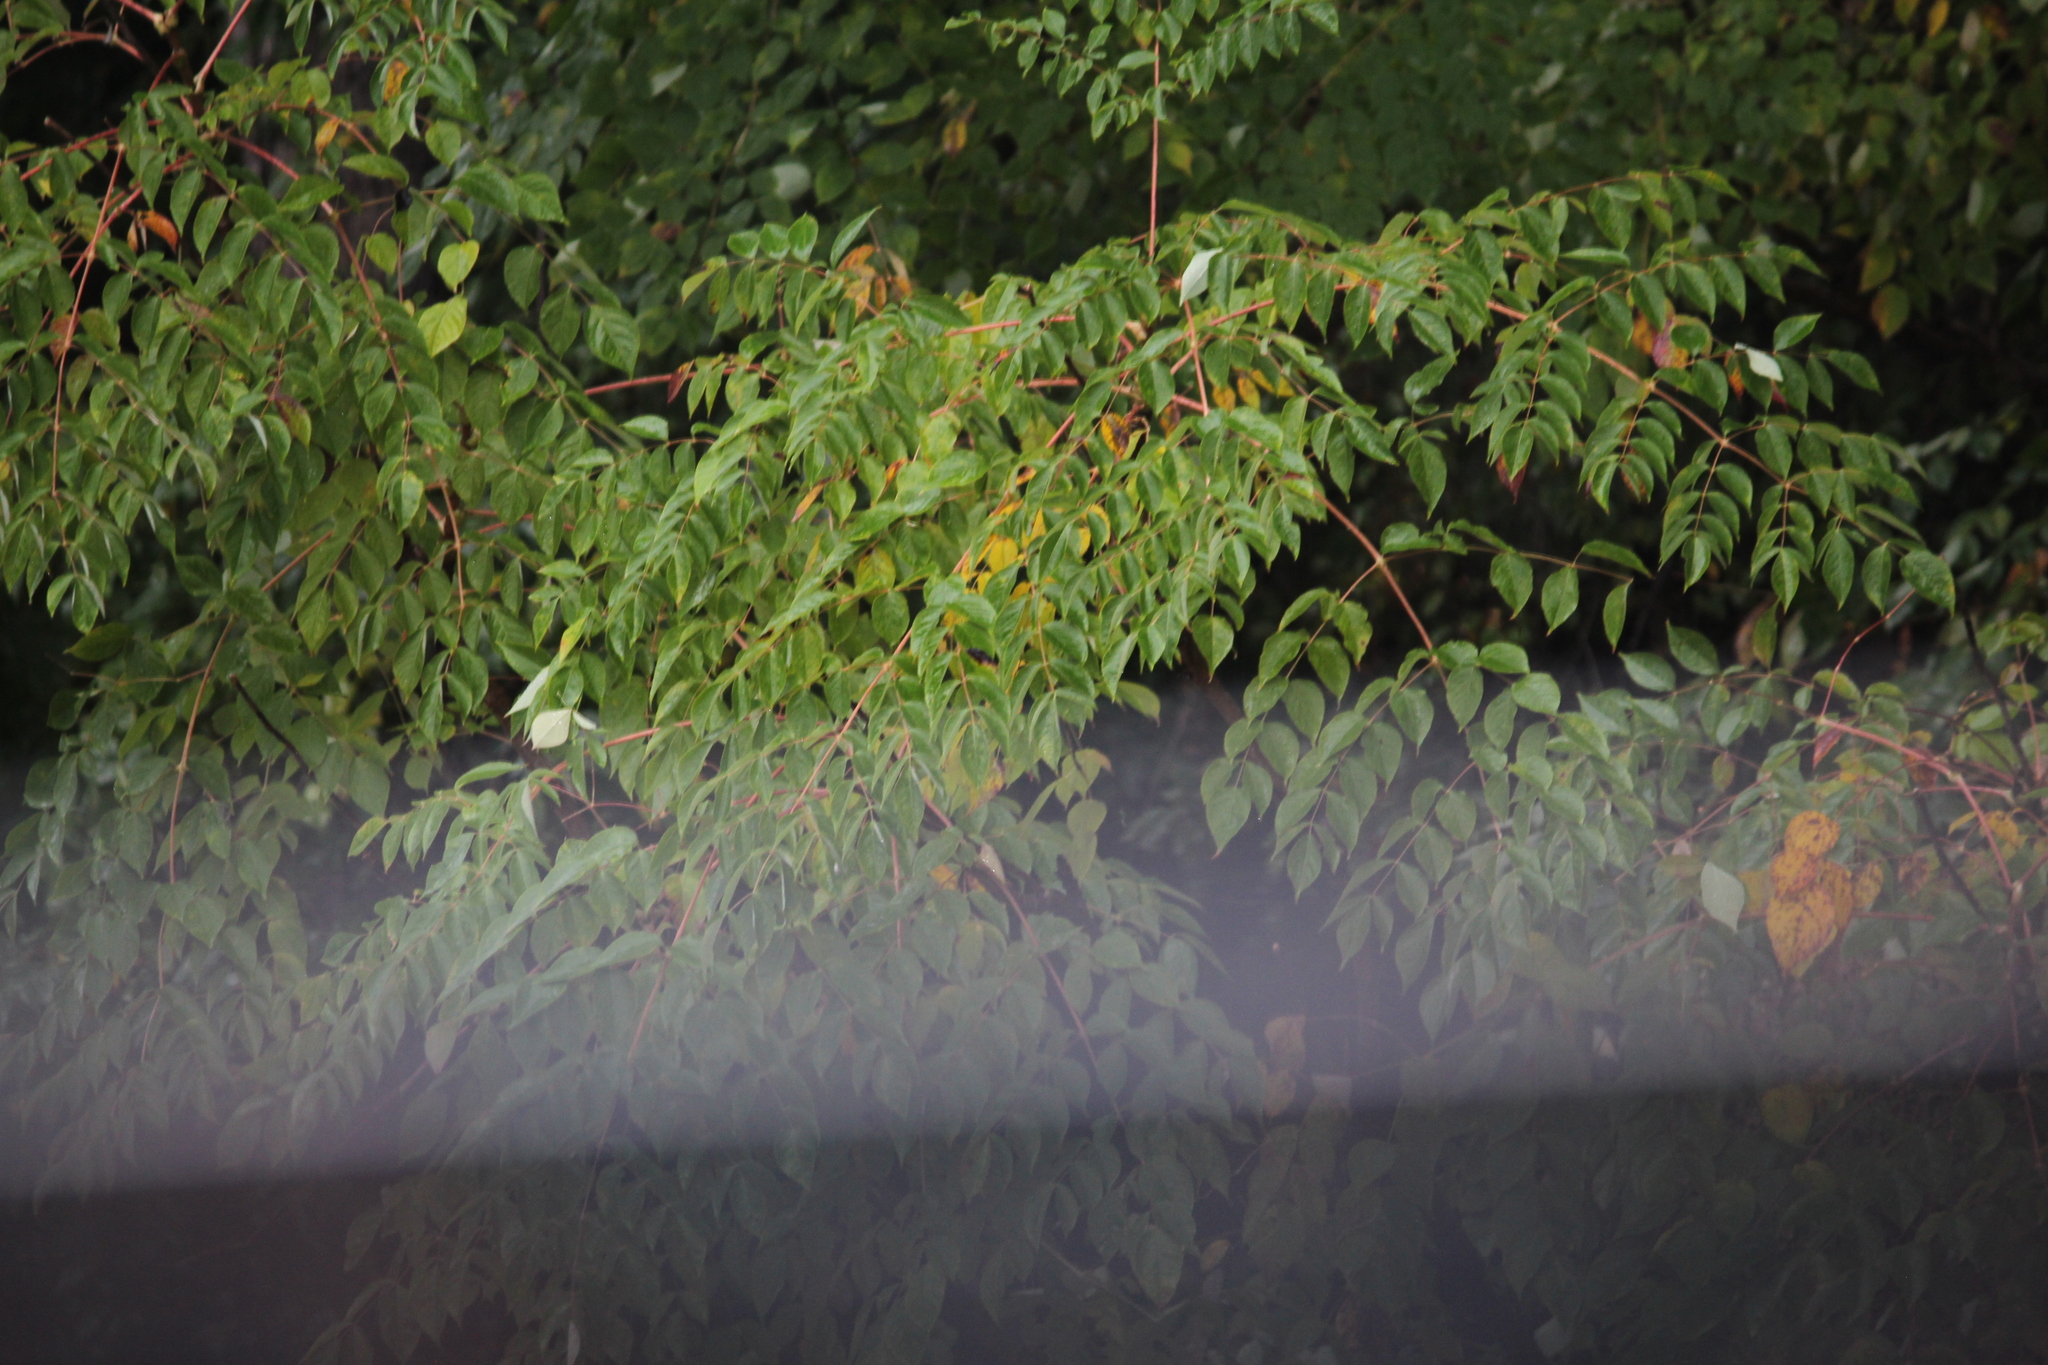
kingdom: Plantae
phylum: Tracheophyta
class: Magnoliopsida
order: Apiales
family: Araliaceae
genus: Aralia
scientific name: Aralia spinosa
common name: Hercules'-club
